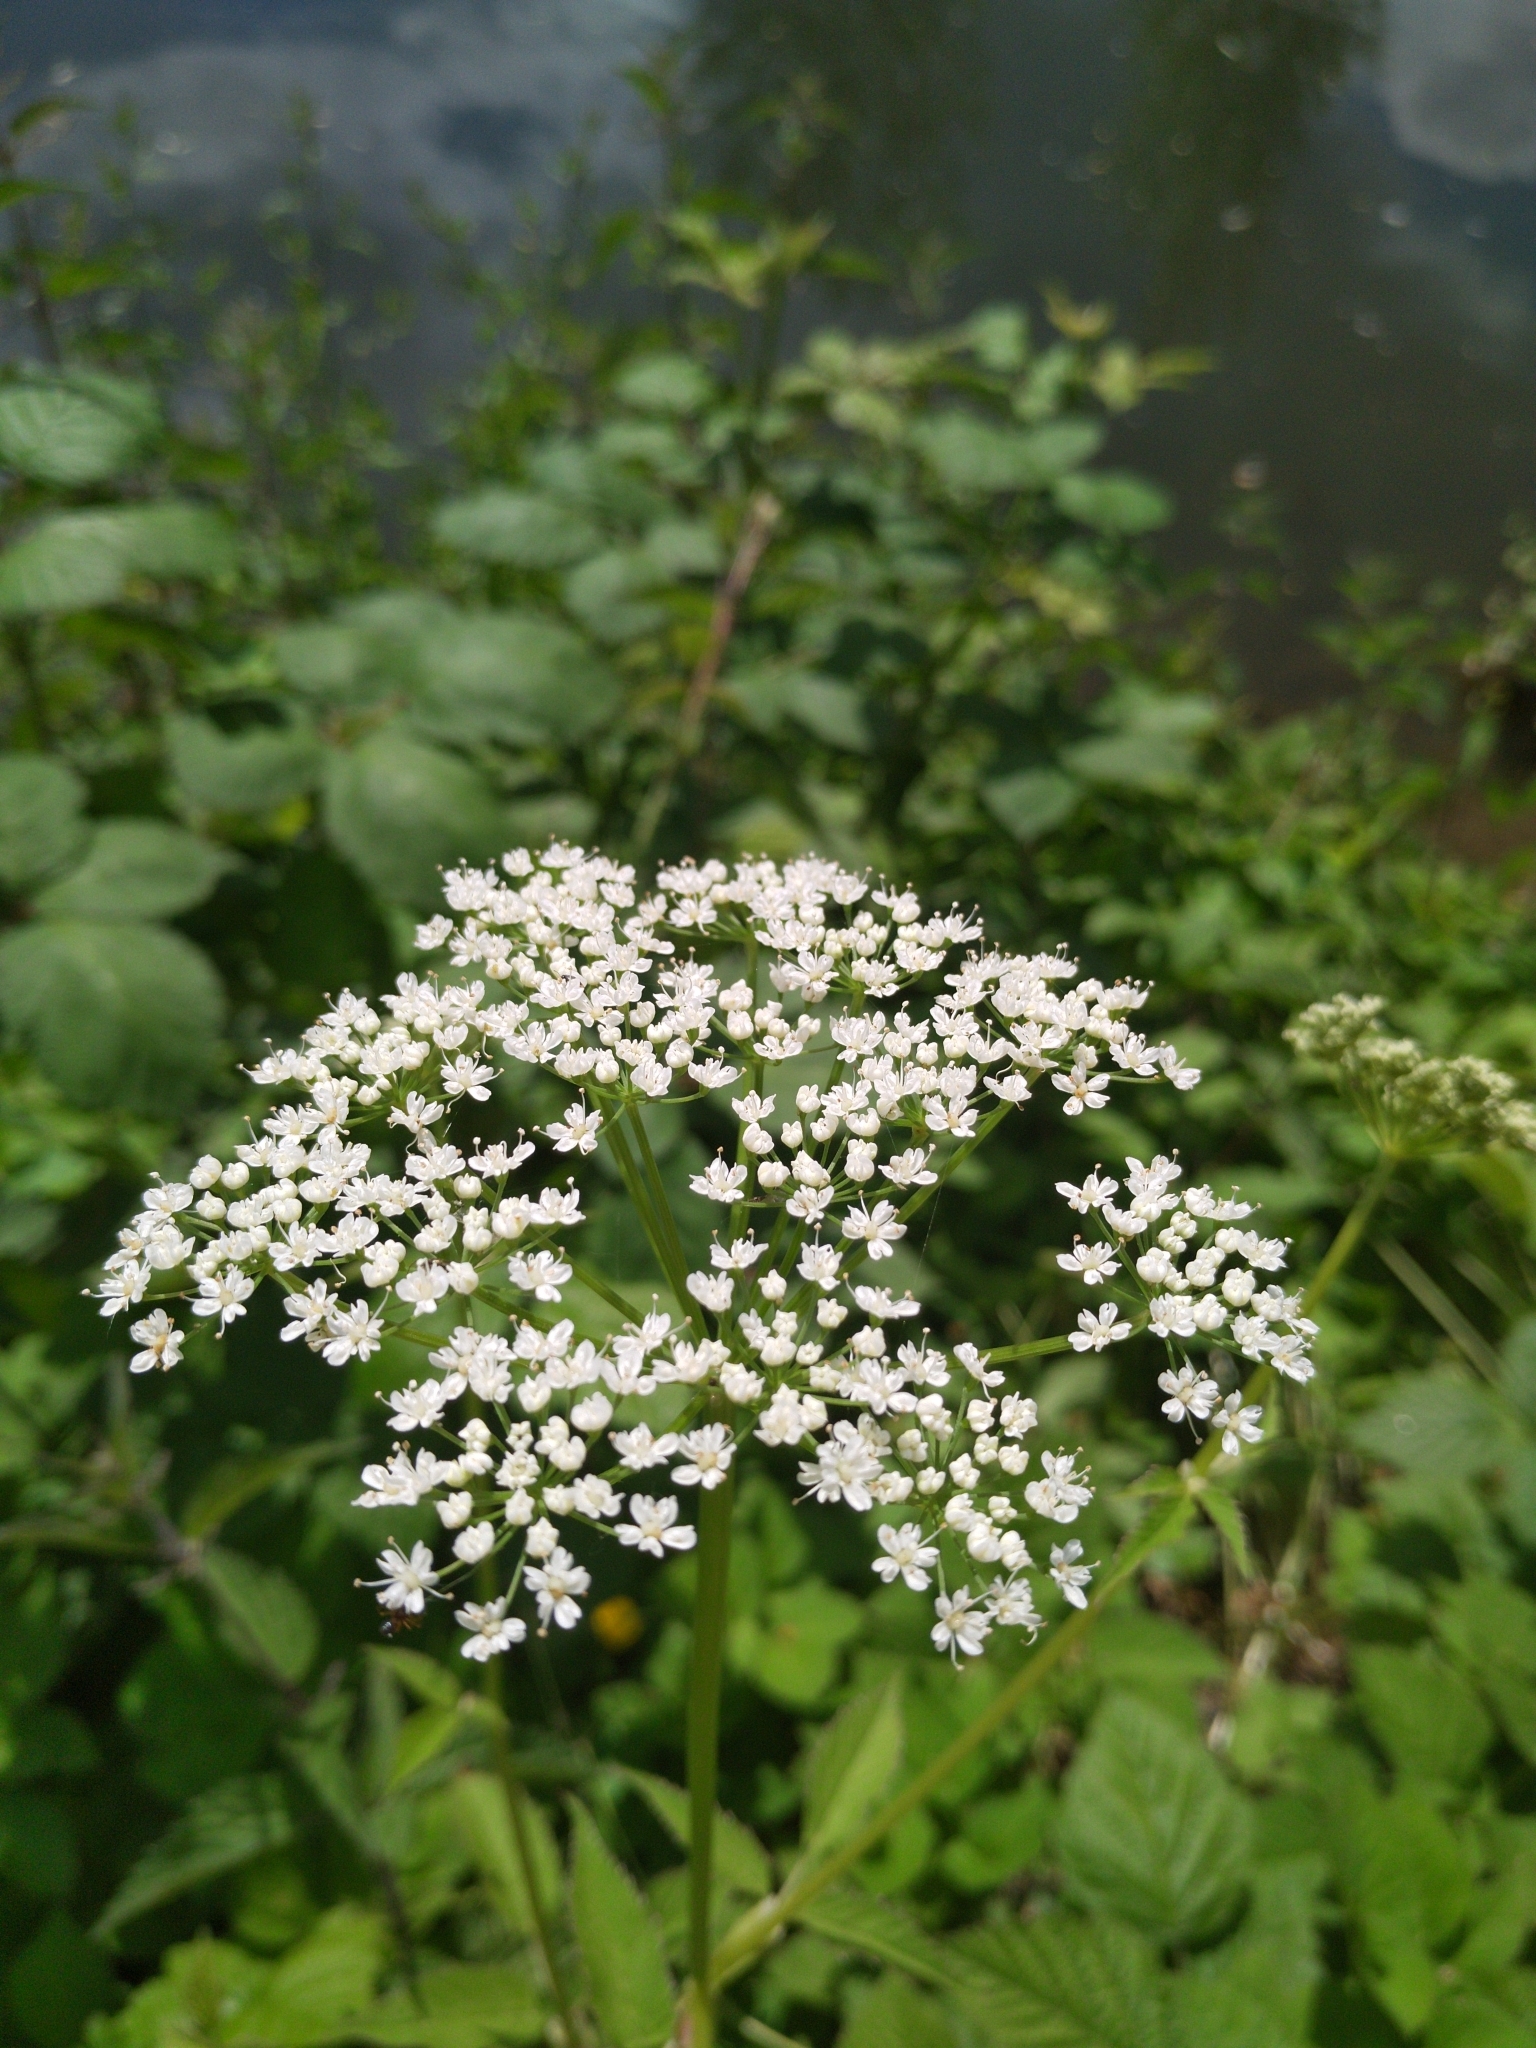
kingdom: Plantae
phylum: Tracheophyta
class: Magnoliopsida
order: Apiales
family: Apiaceae
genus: Aegopodium
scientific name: Aegopodium podagraria
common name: Ground-elder
